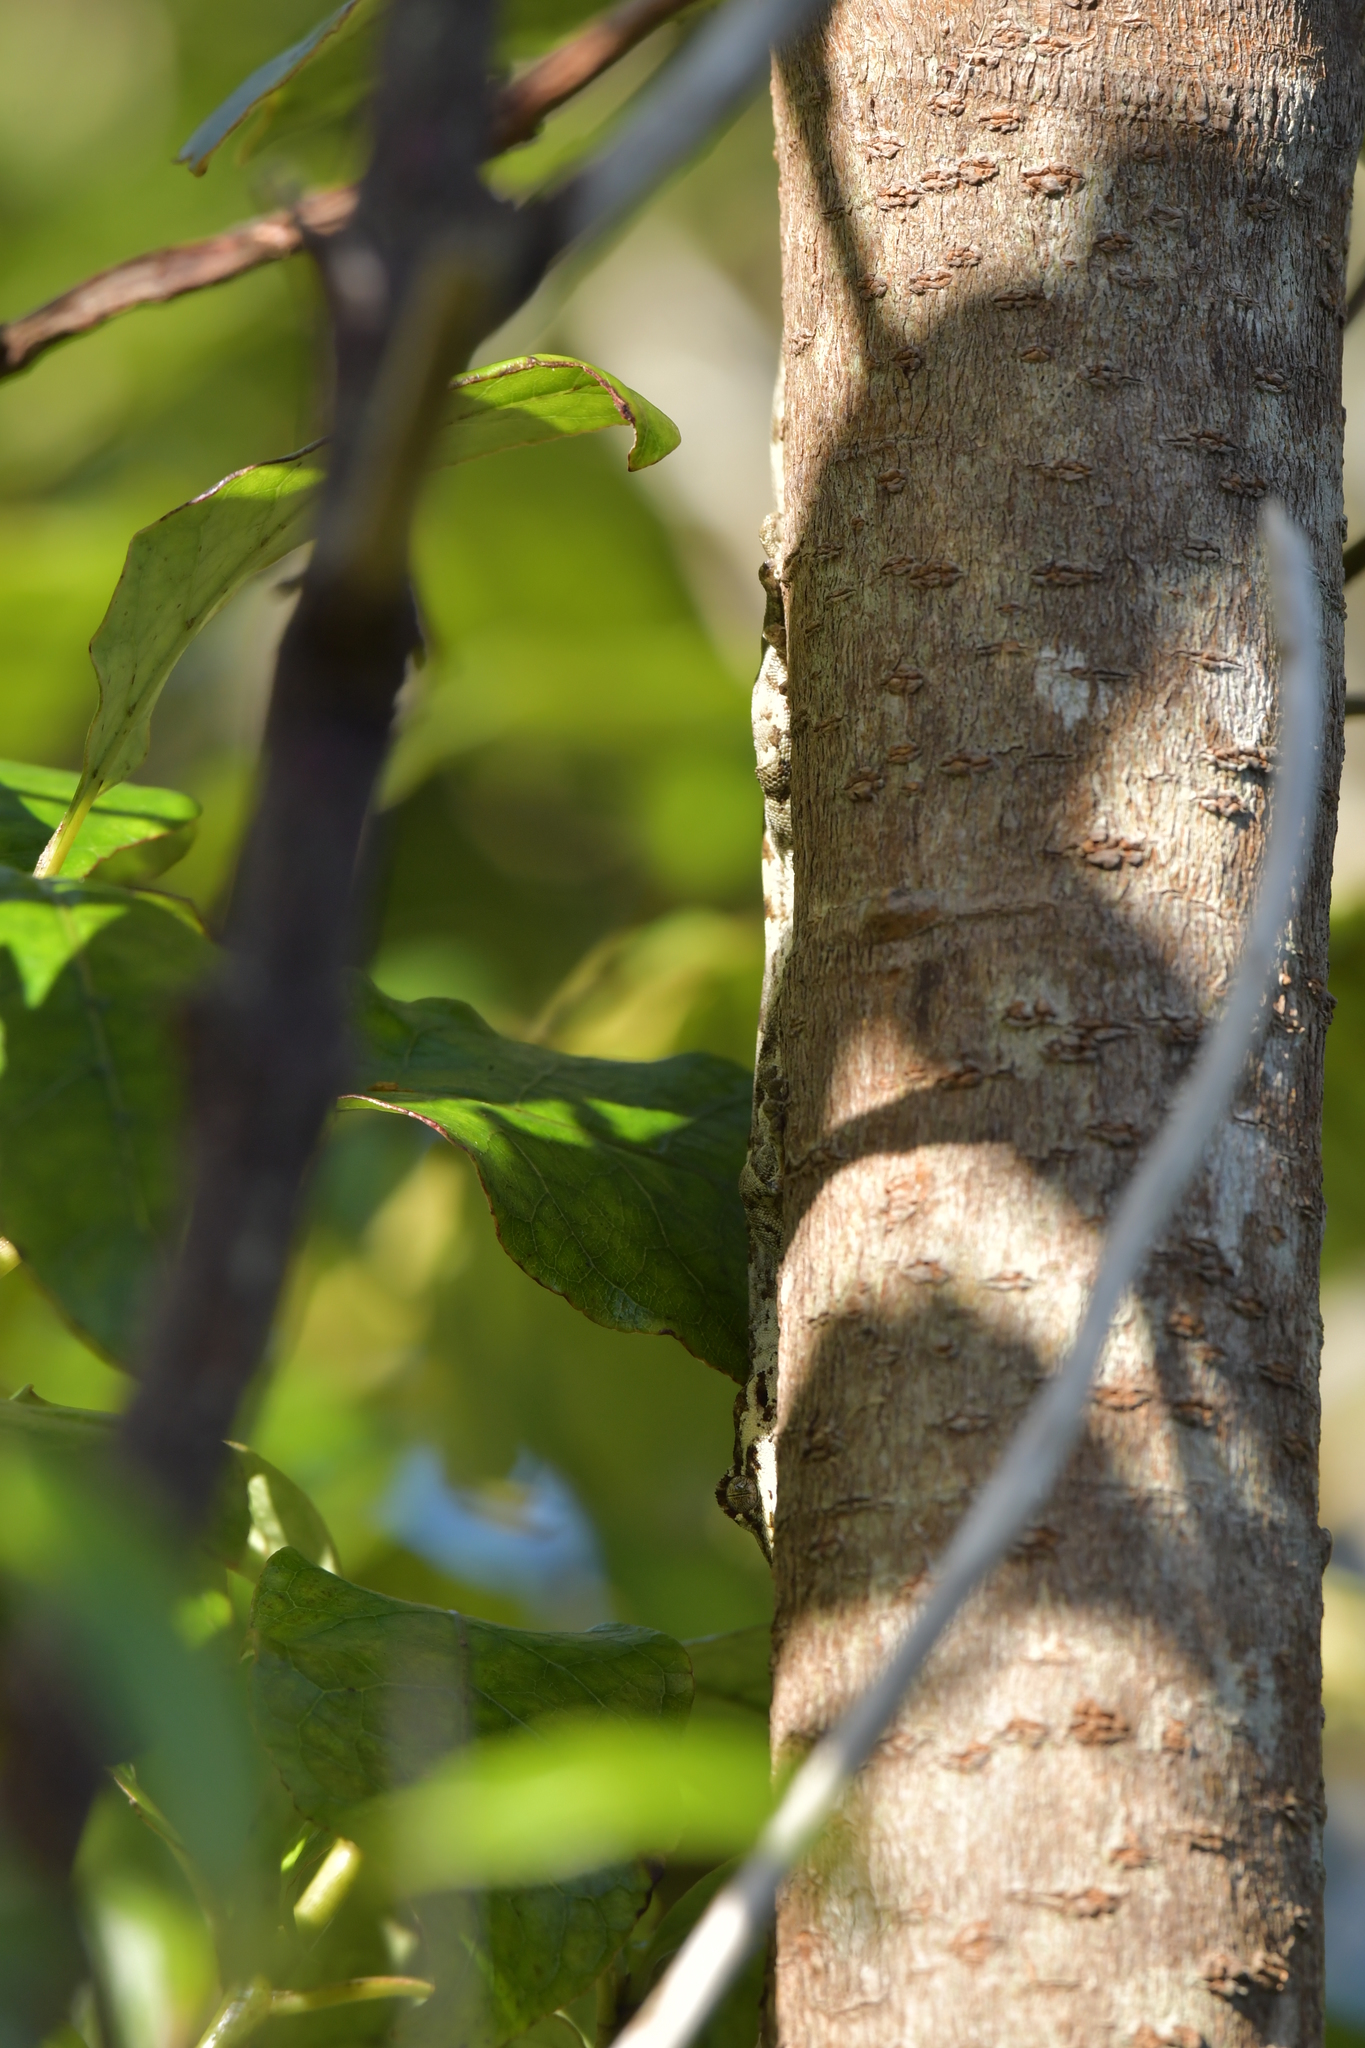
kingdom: Animalia
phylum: Chordata
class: Squamata
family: Diplodactylidae
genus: Mokopirirakau
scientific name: Mokopirirakau
